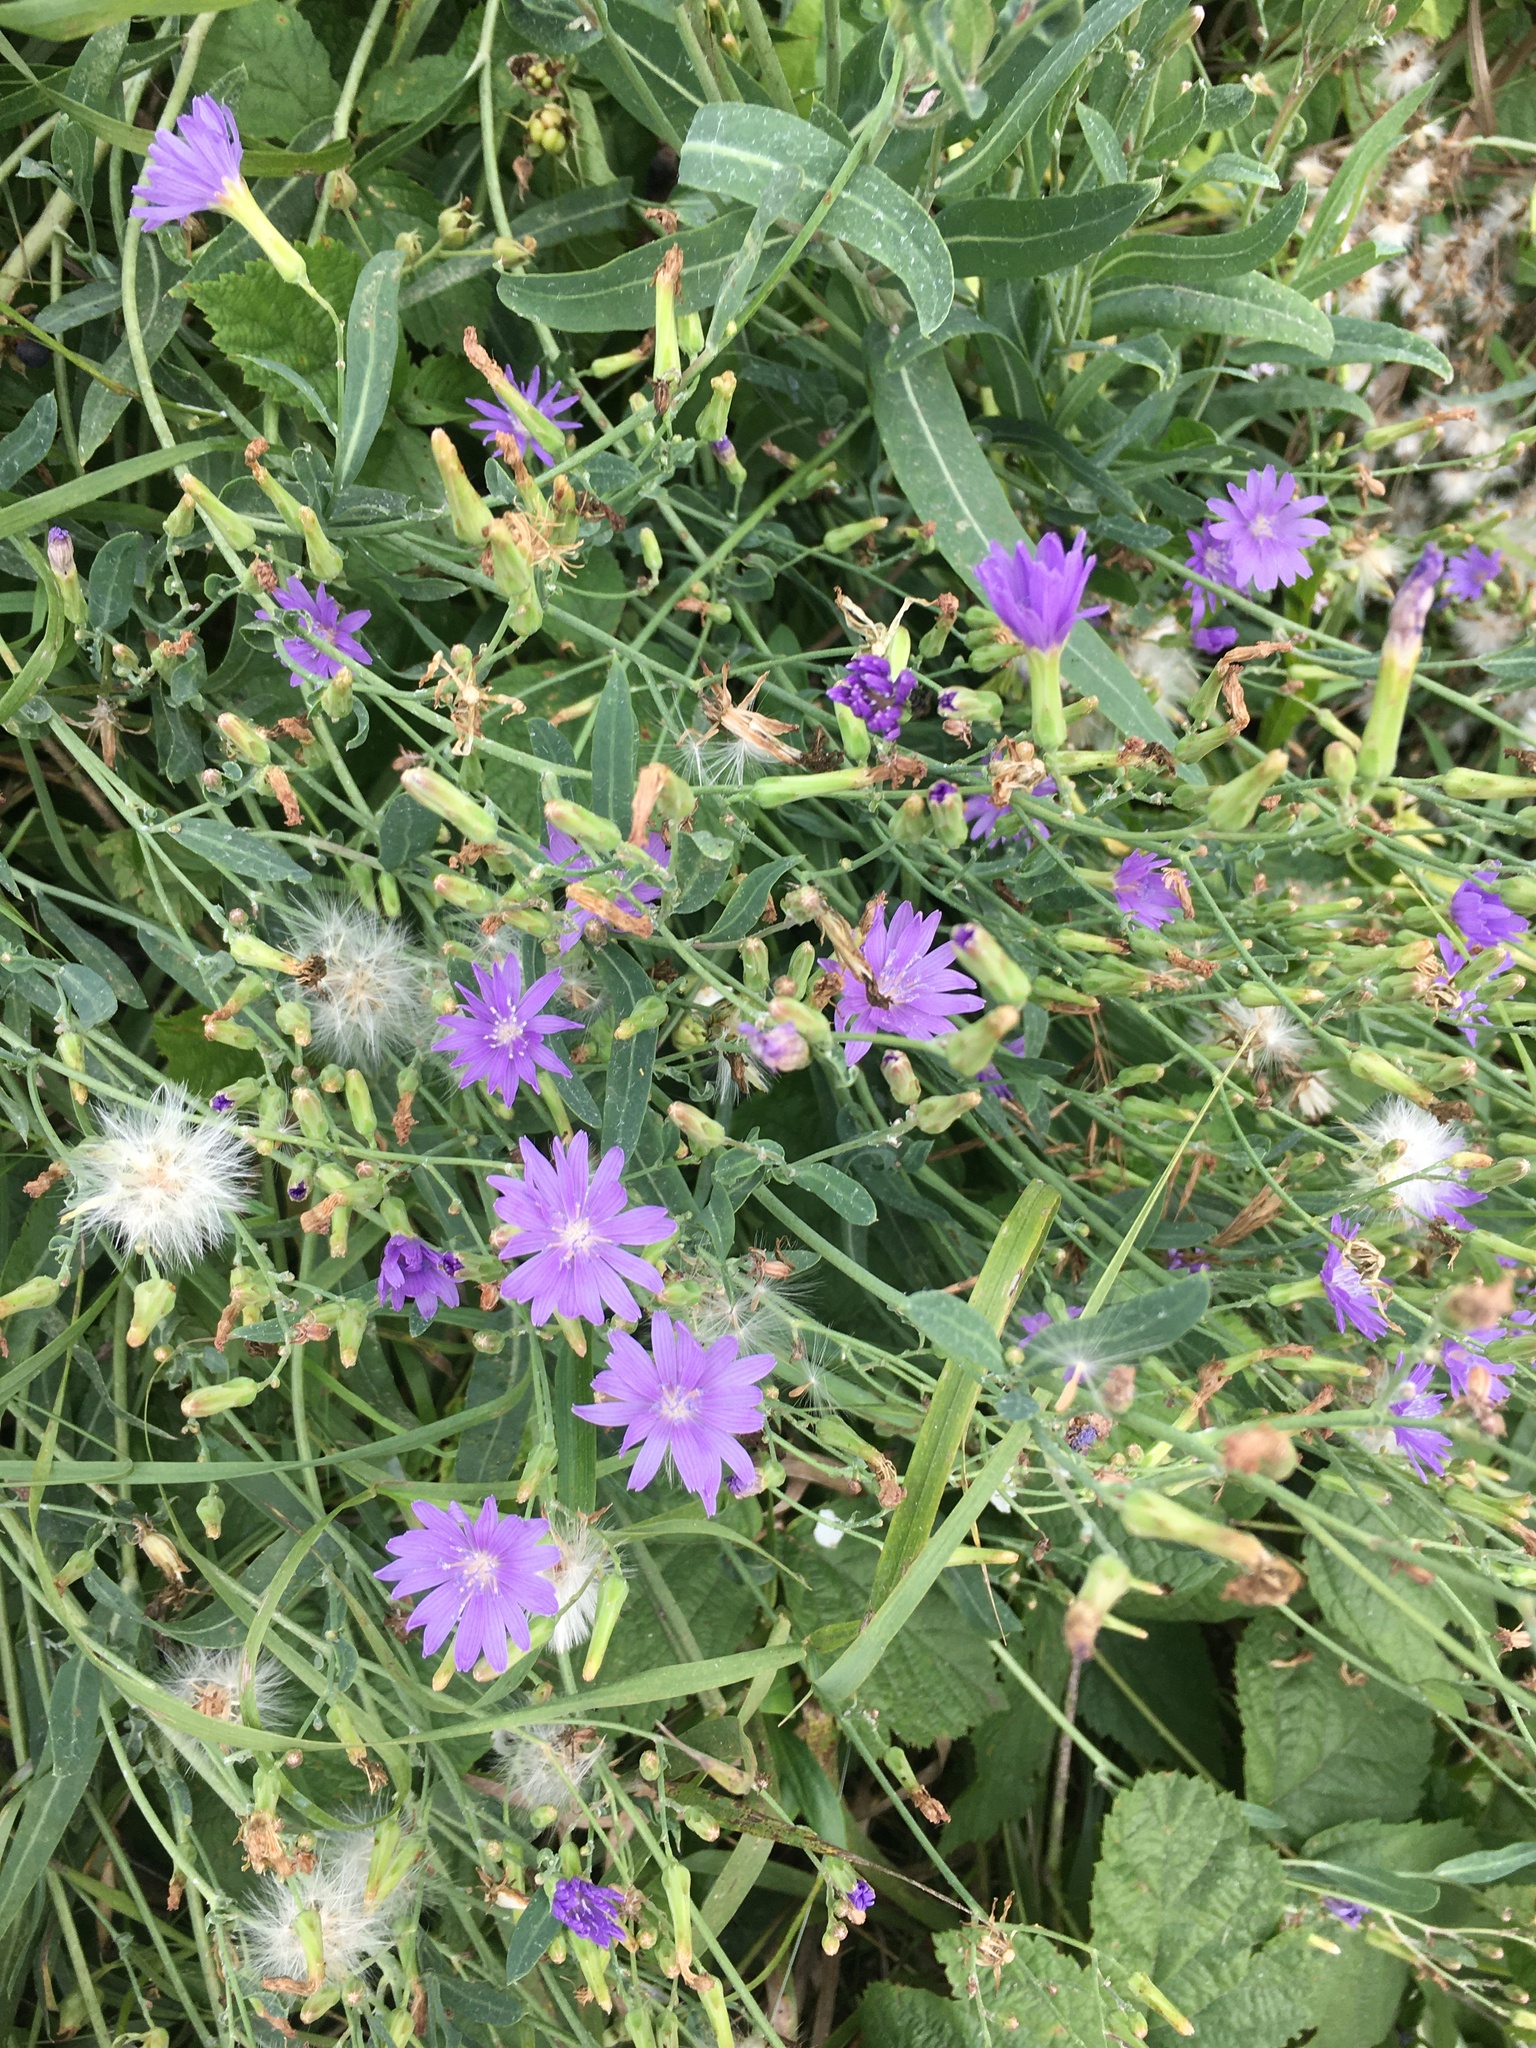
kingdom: Plantae
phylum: Tracheophyta
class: Magnoliopsida
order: Asterales
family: Asteraceae
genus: Lactuca
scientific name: Lactuca tatarica
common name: Blue lettuce
